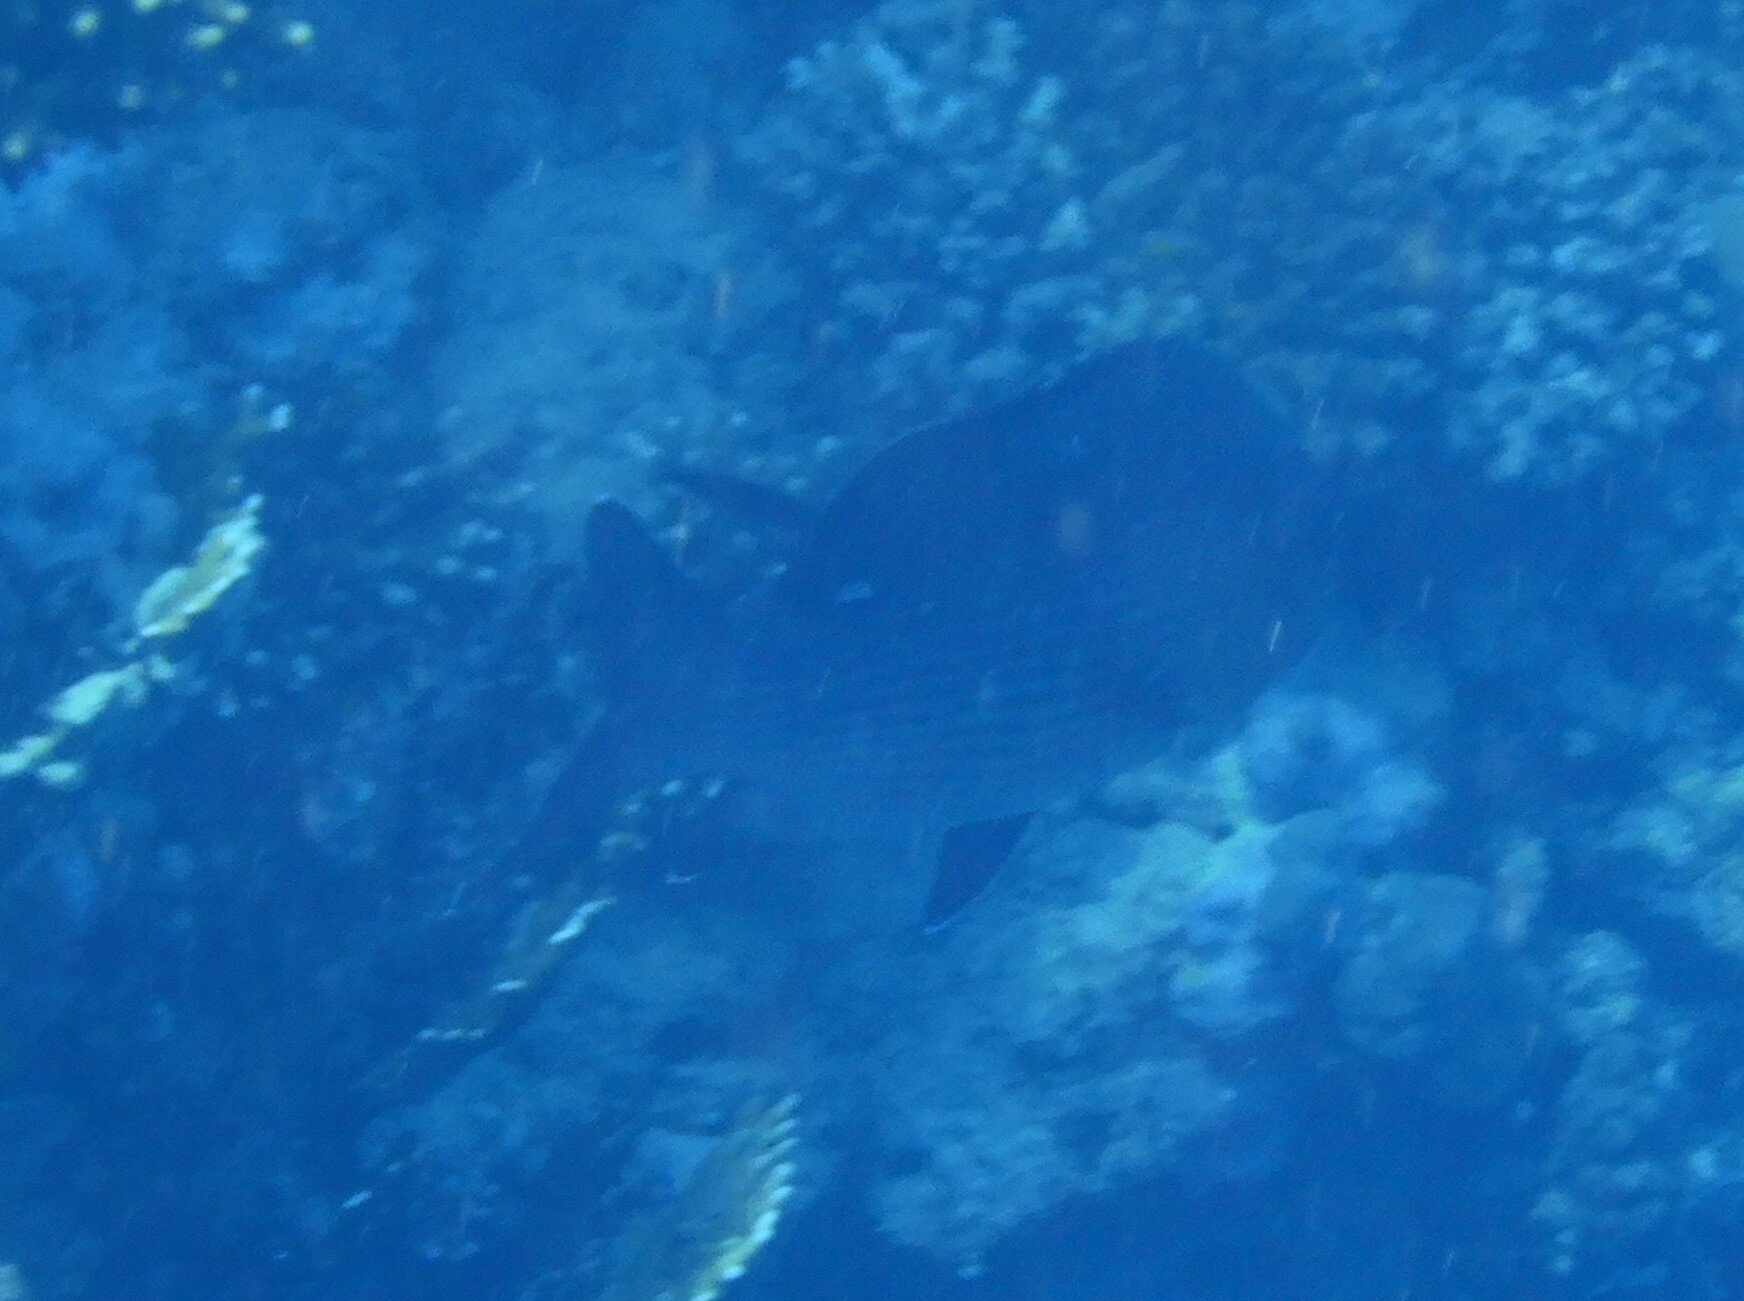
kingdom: Animalia
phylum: Chordata
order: Perciformes
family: Lutjanidae
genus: Lutjanus
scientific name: Lutjanus bohar
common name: Red bass
